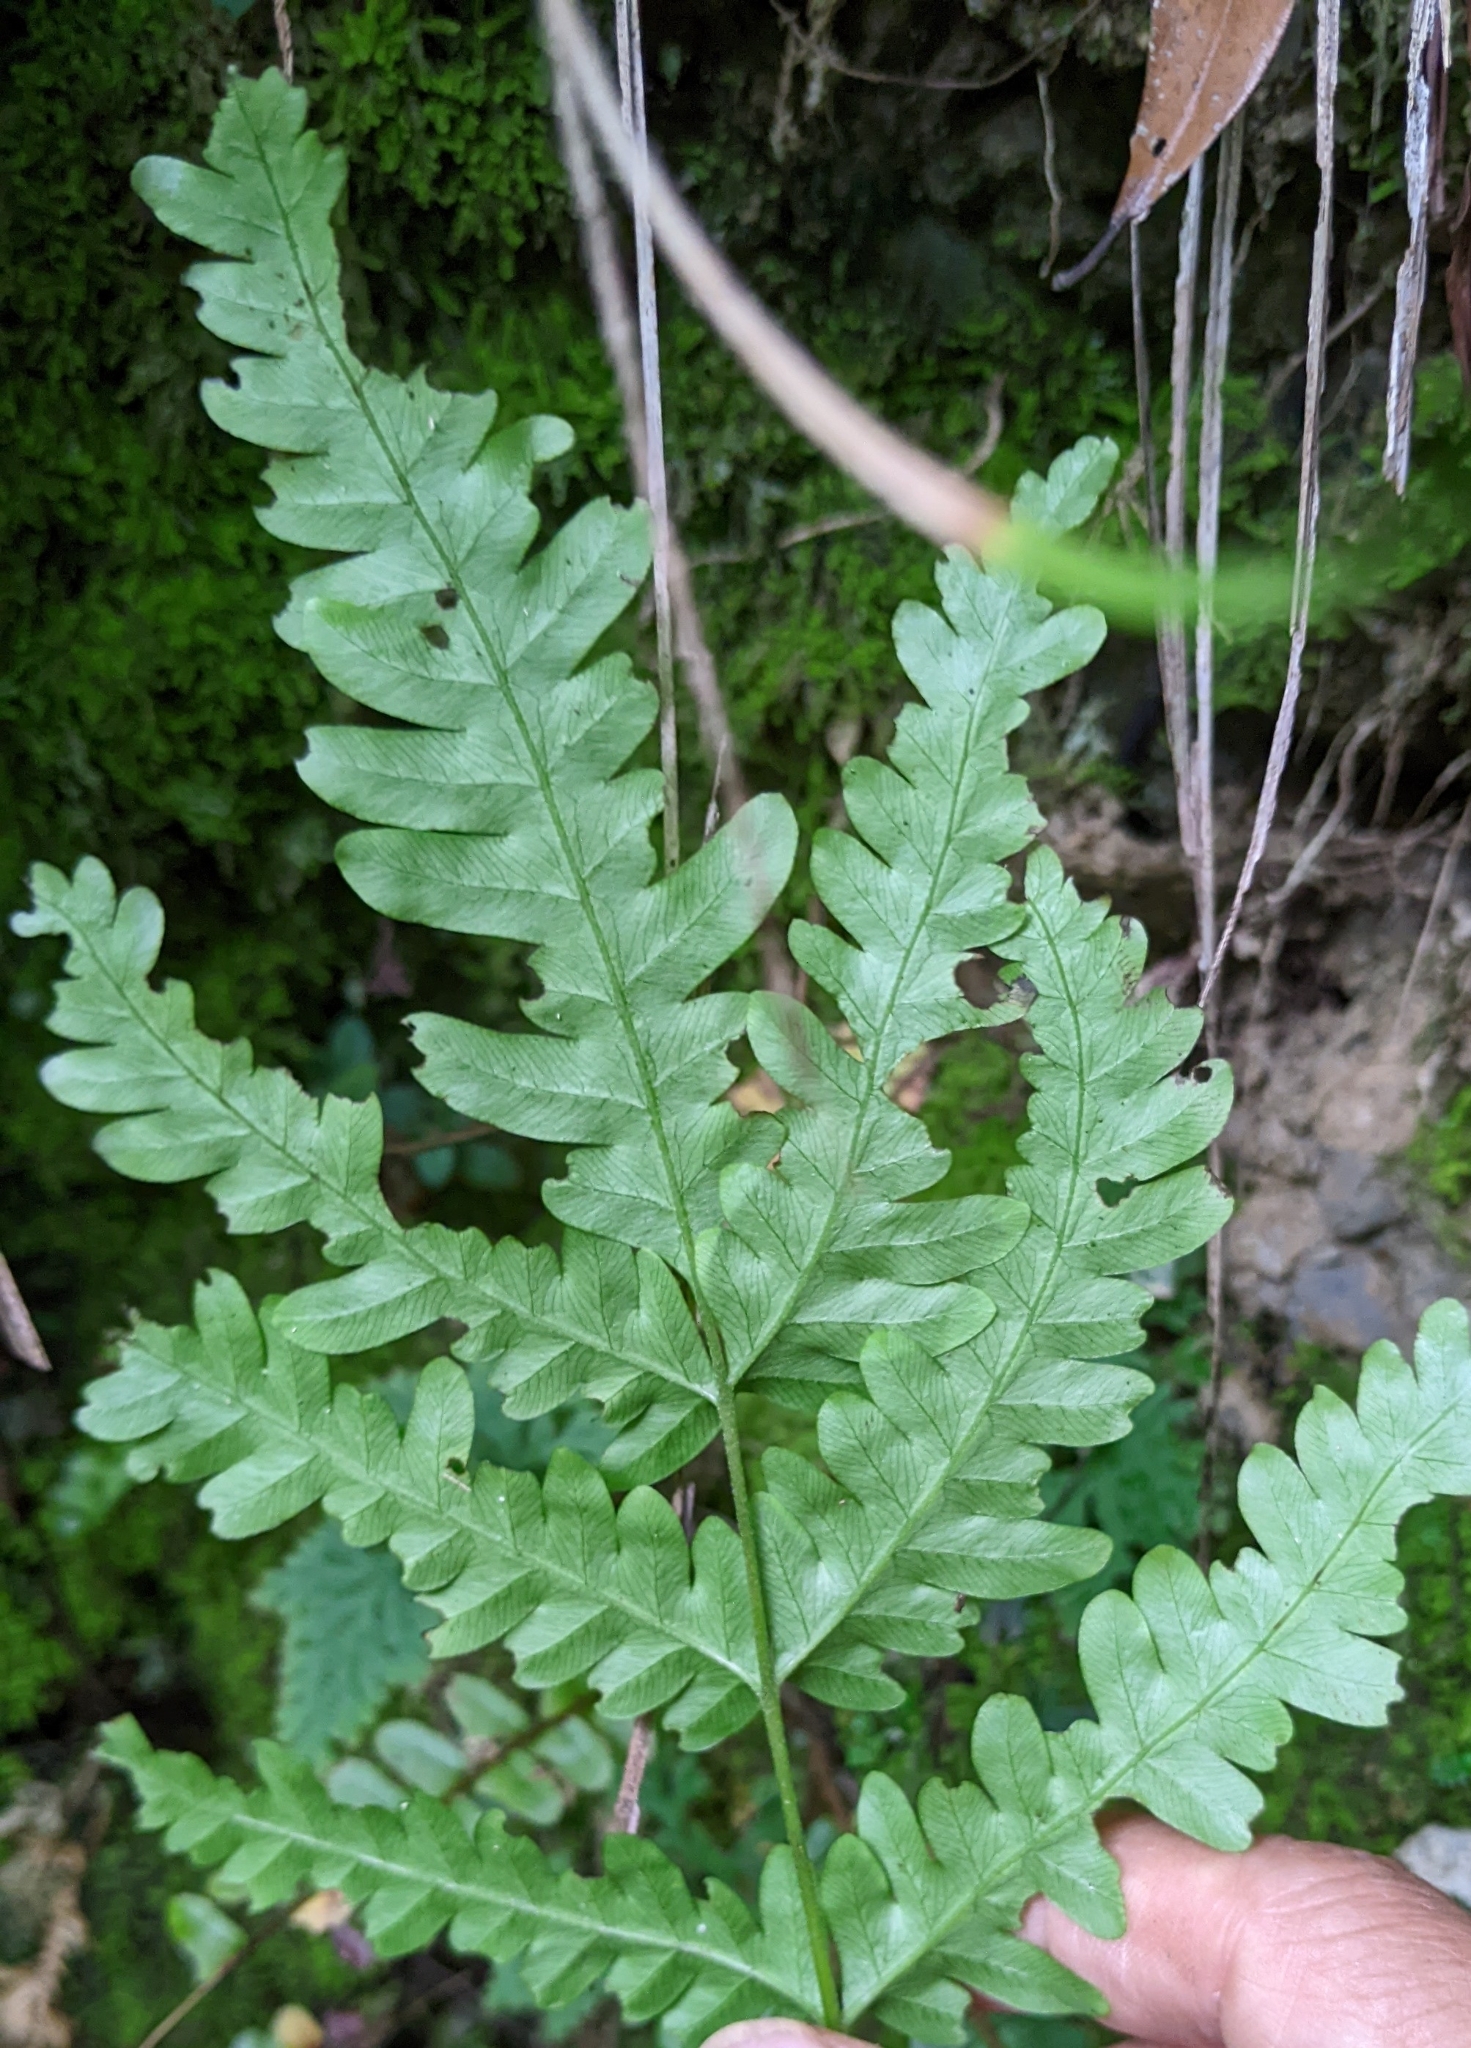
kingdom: Plantae
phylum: Tracheophyta
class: Polypodiopsida
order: Polypodiales
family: Pteridaceae
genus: Pteris
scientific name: Pteris biaurita
